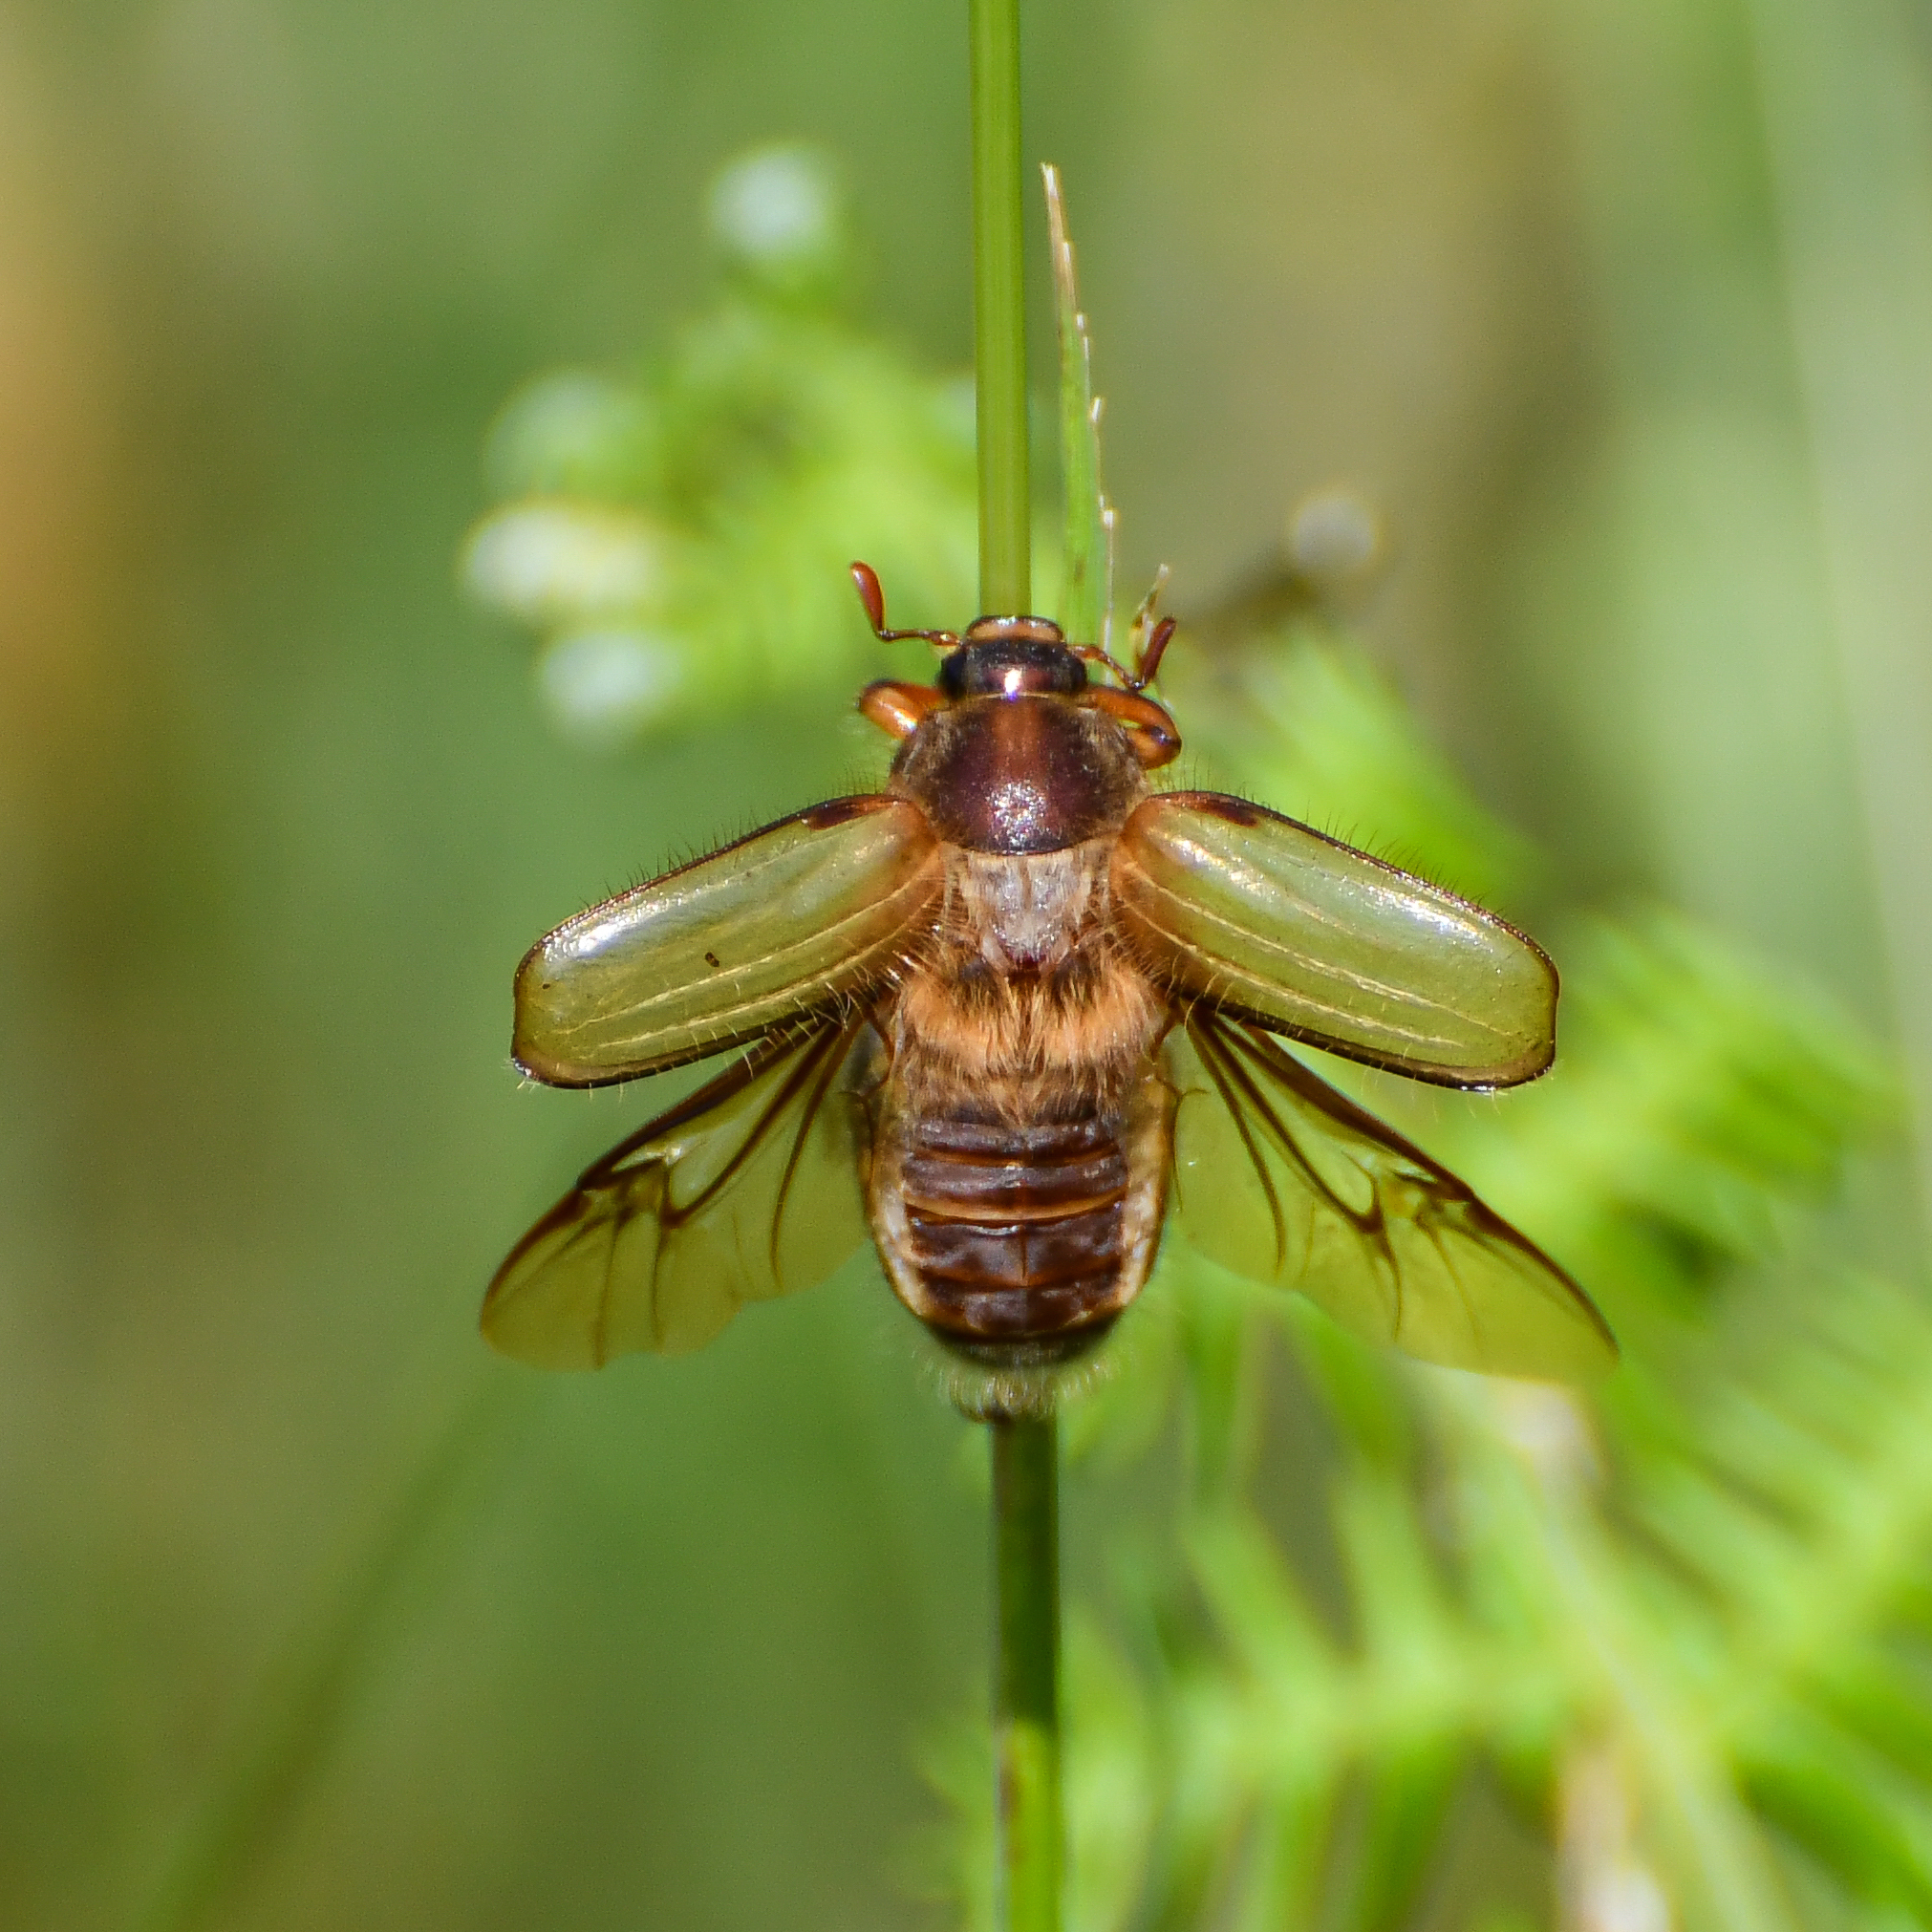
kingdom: Animalia
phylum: Arthropoda
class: Insecta
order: Coleoptera
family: Scarabaeidae
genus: Amphimallon
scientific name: Amphimallon solstitiale
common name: Summer chafer
